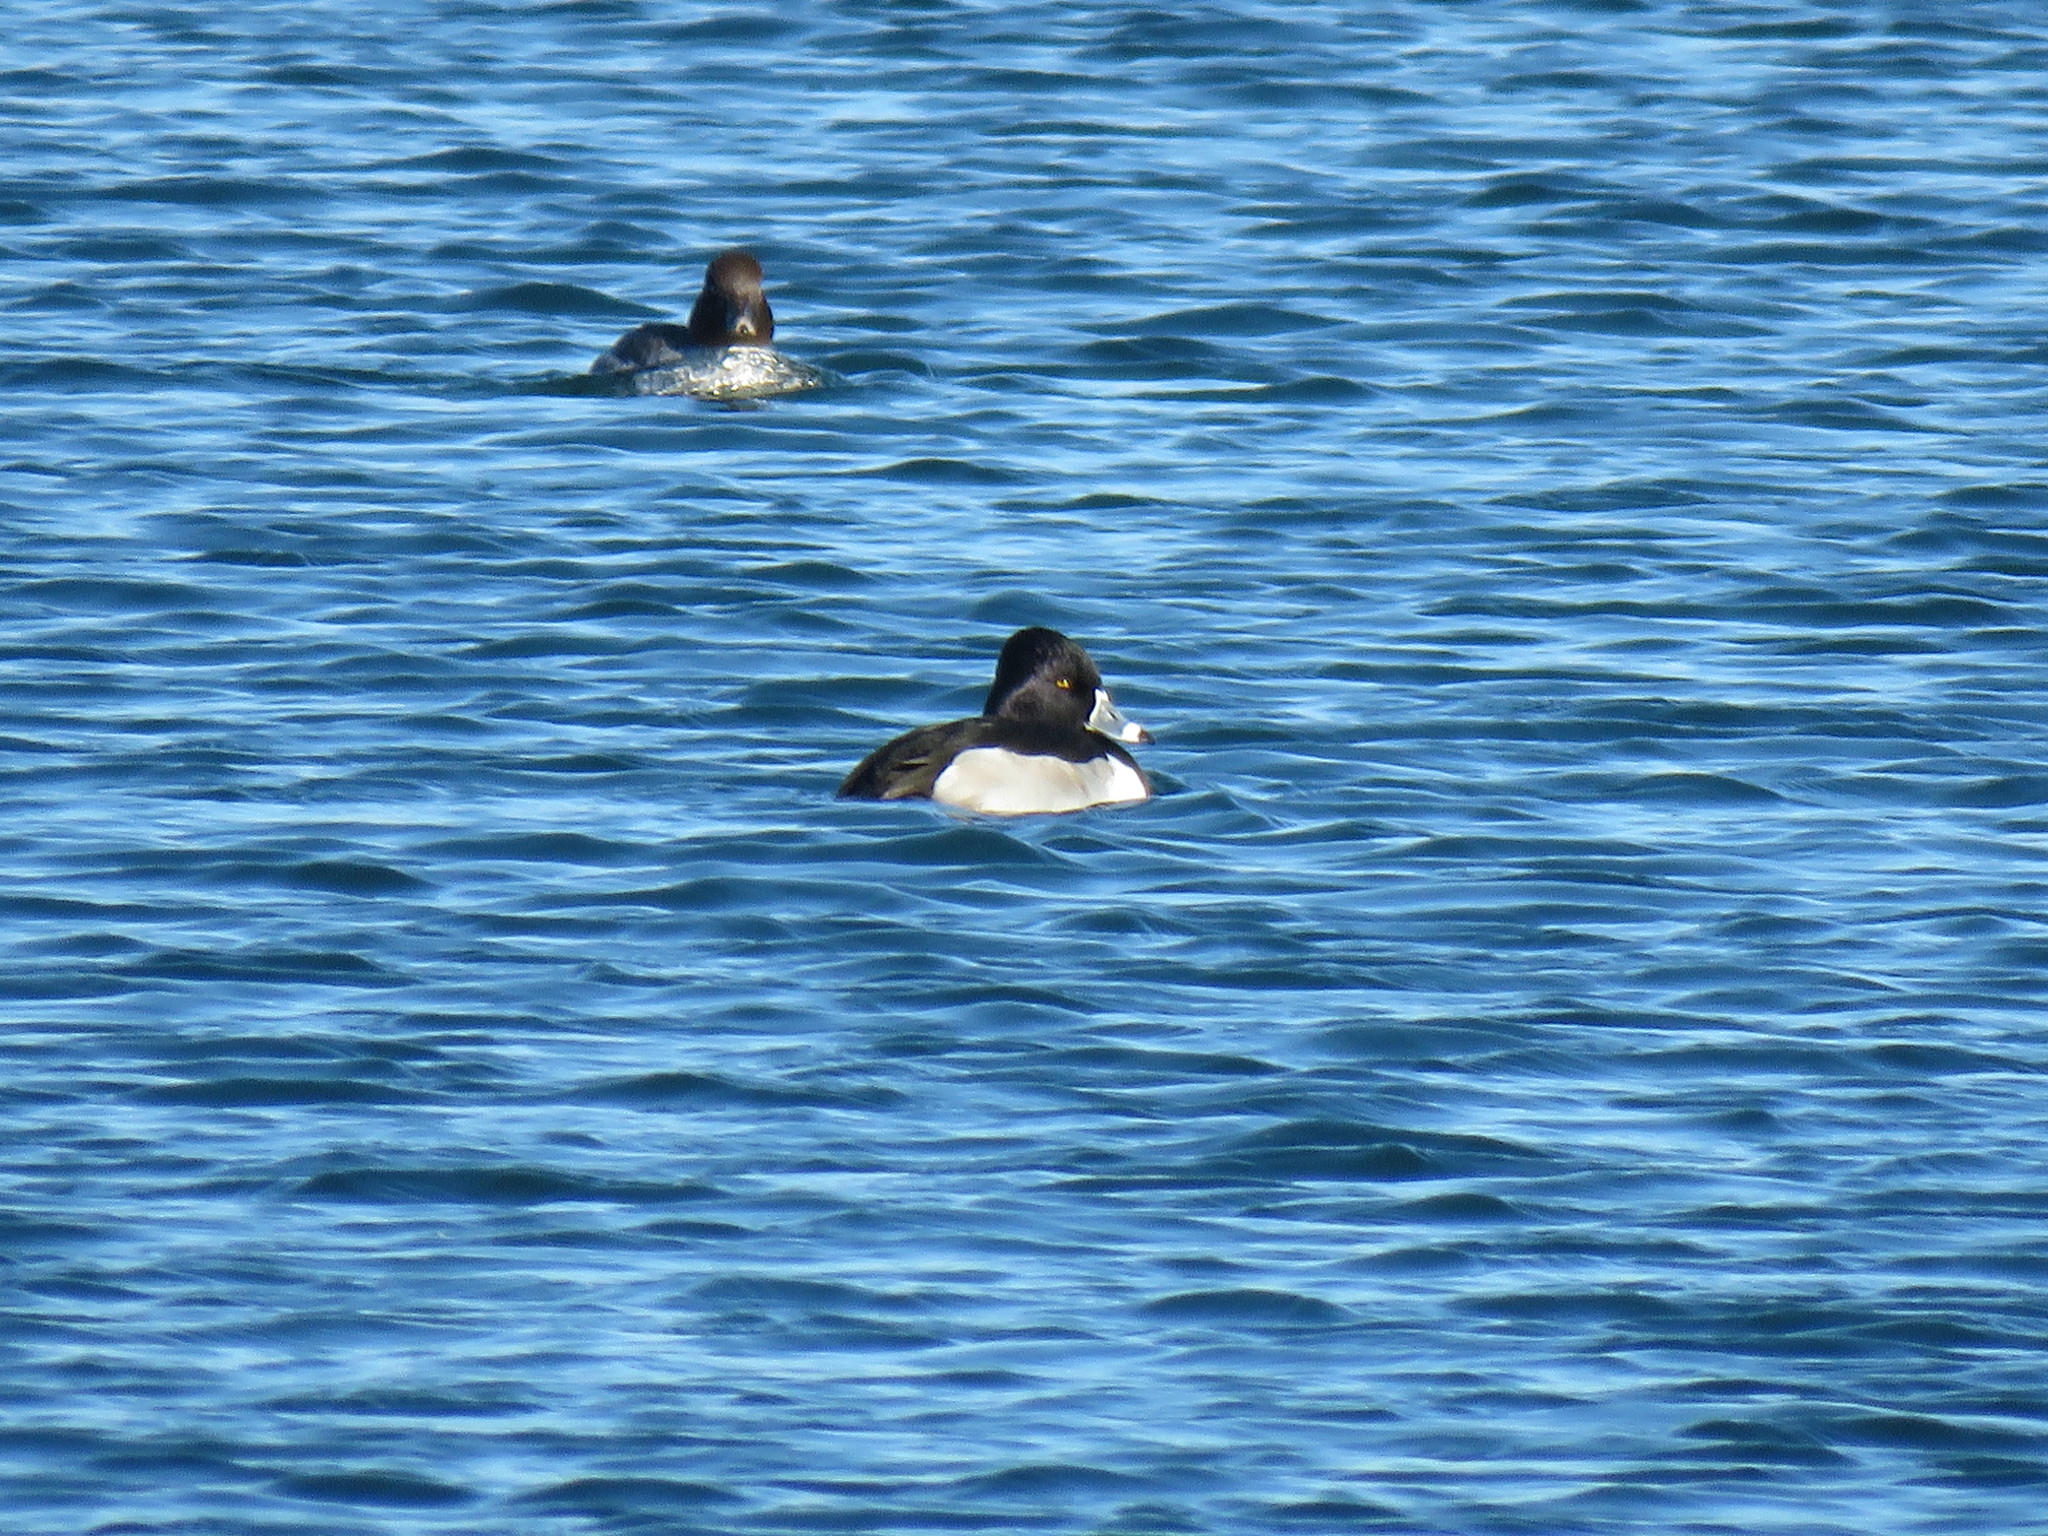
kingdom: Animalia
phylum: Chordata
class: Aves
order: Anseriformes
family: Anatidae
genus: Aythya
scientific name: Aythya collaris
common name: Ring-necked duck
